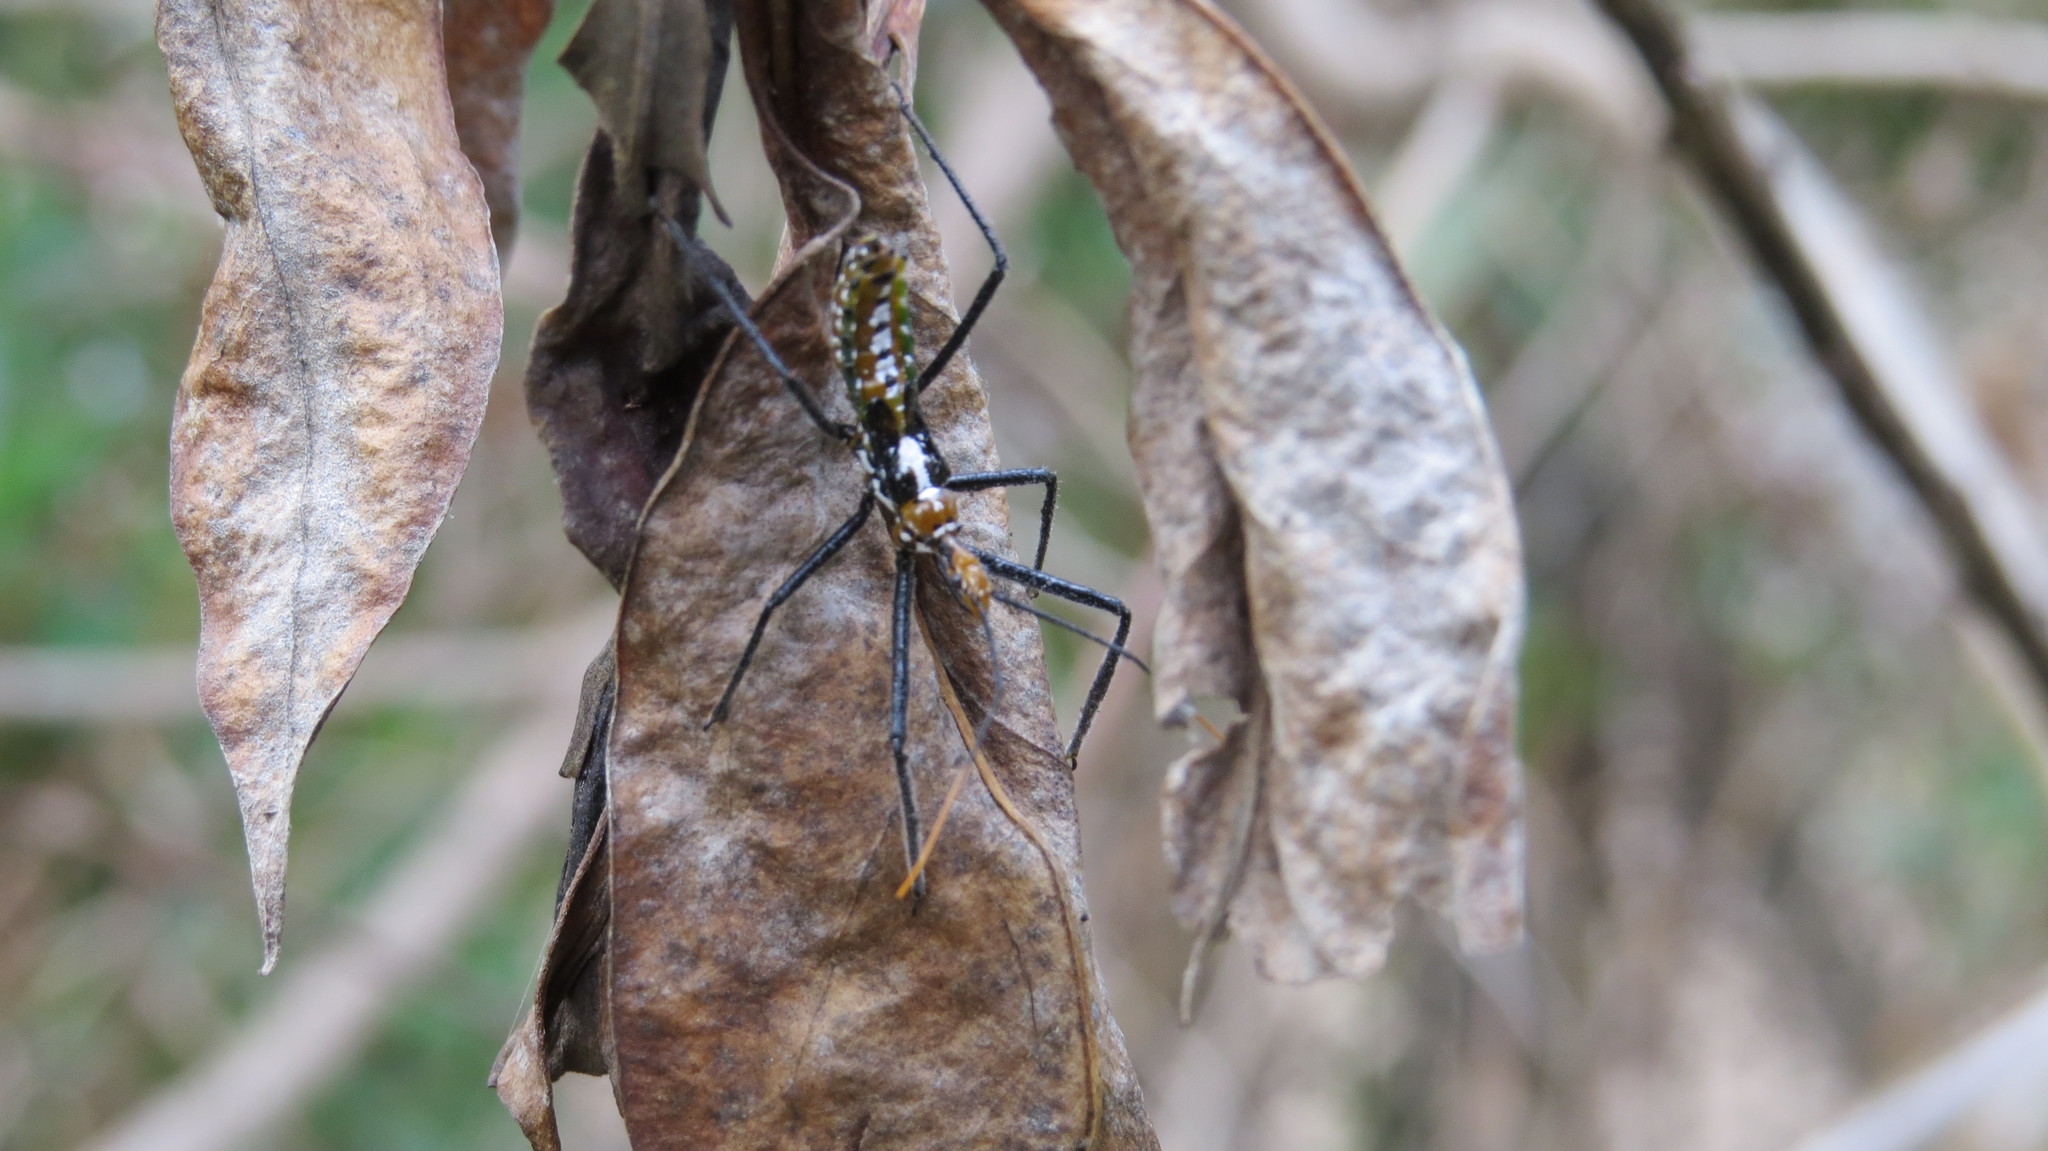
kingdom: Animalia
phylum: Arthropoda
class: Insecta
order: Hemiptera
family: Reduviidae
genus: Zelus
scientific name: Zelus leucogrammus
